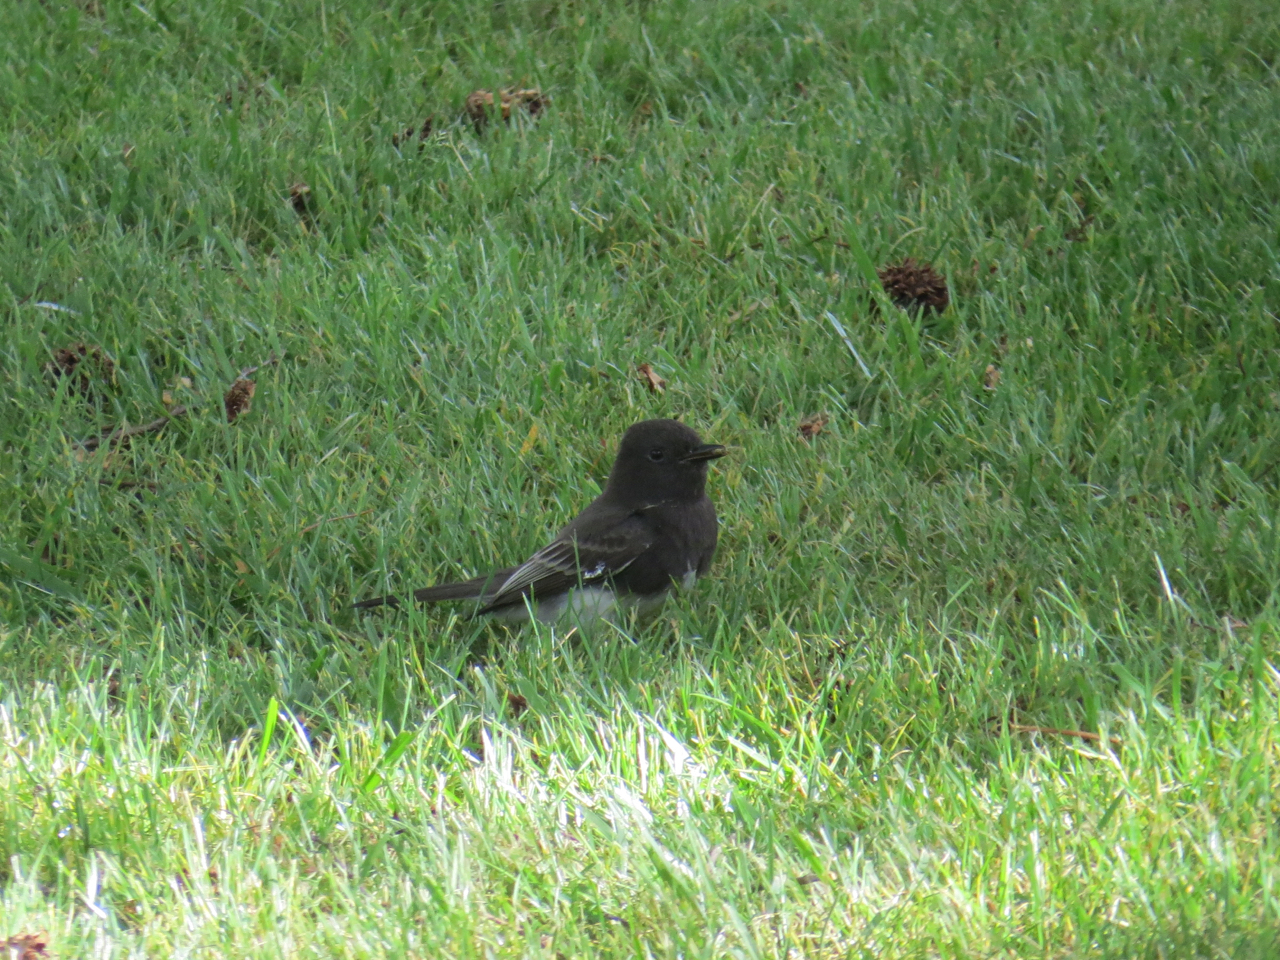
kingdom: Animalia
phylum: Chordata
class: Aves
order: Passeriformes
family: Tyrannidae
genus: Sayornis
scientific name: Sayornis nigricans
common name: Black phoebe
